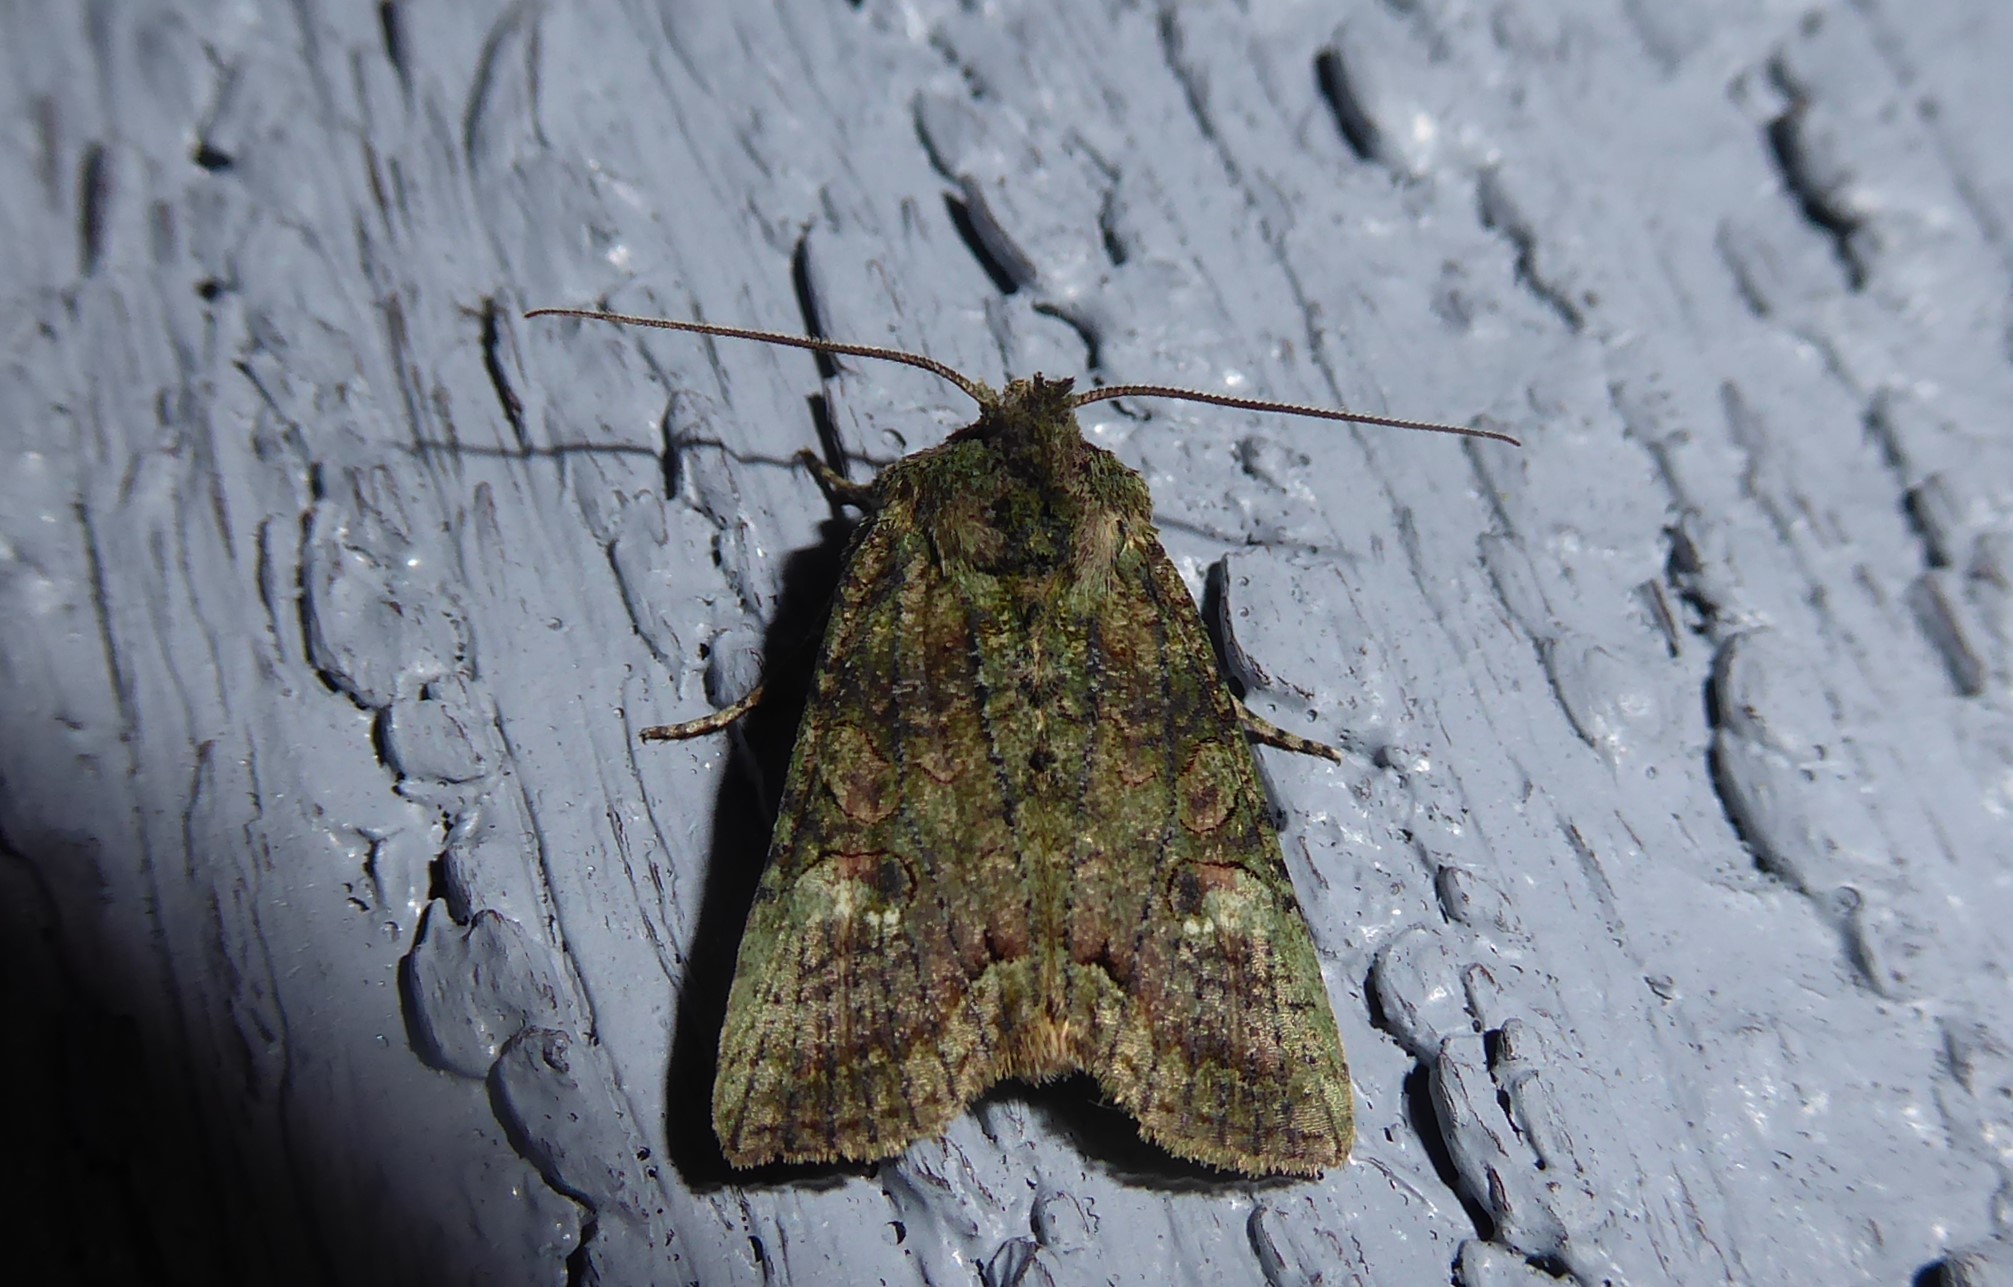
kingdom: Animalia
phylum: Arthropoda
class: Insecta
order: Lepidoptera
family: Noctuidae
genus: Meterana
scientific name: Meterana levis
